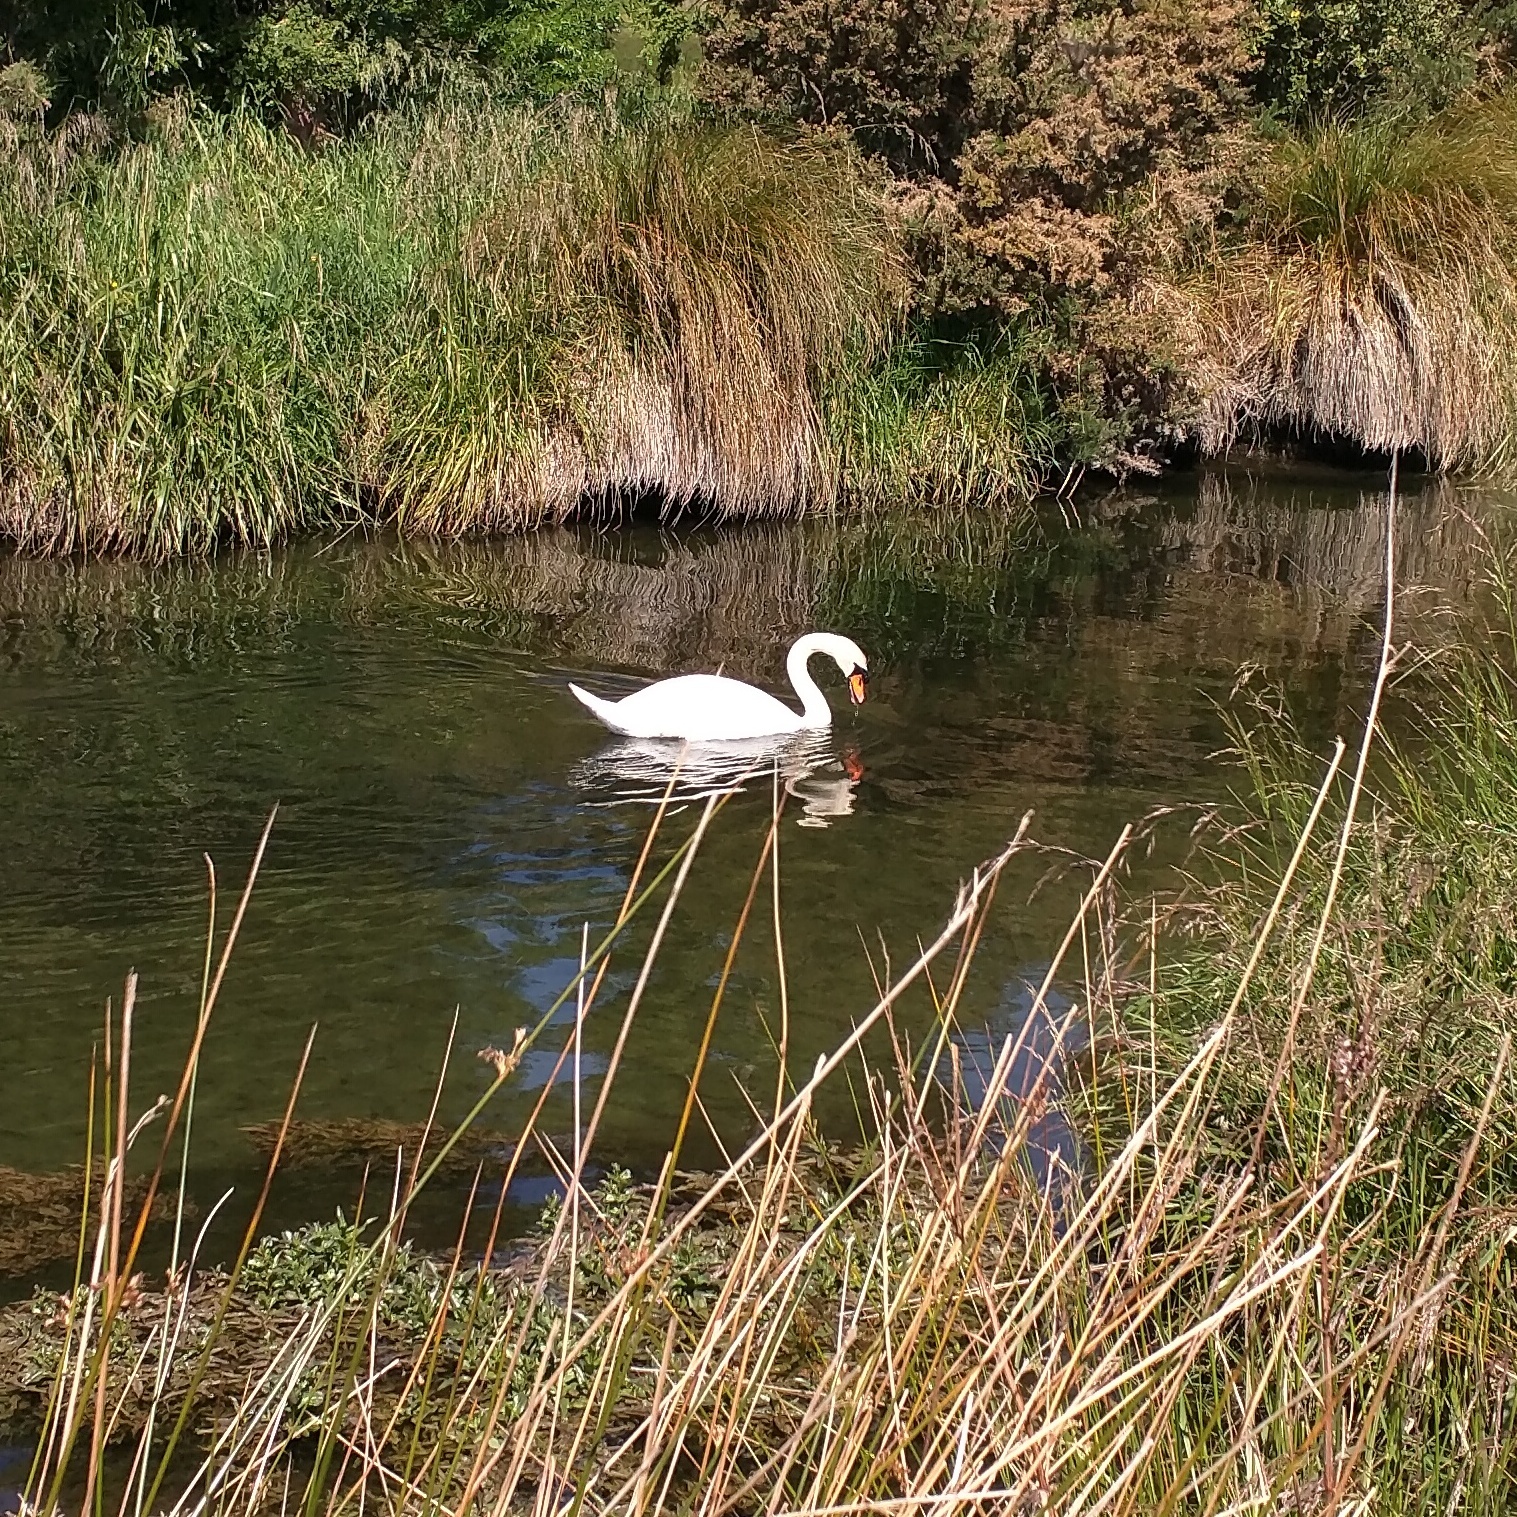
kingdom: Animalia
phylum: Chordata
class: Aves
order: Anseriformes
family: Anatidae
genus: Cygnus
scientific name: Cygnus olor
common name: Mute swan
